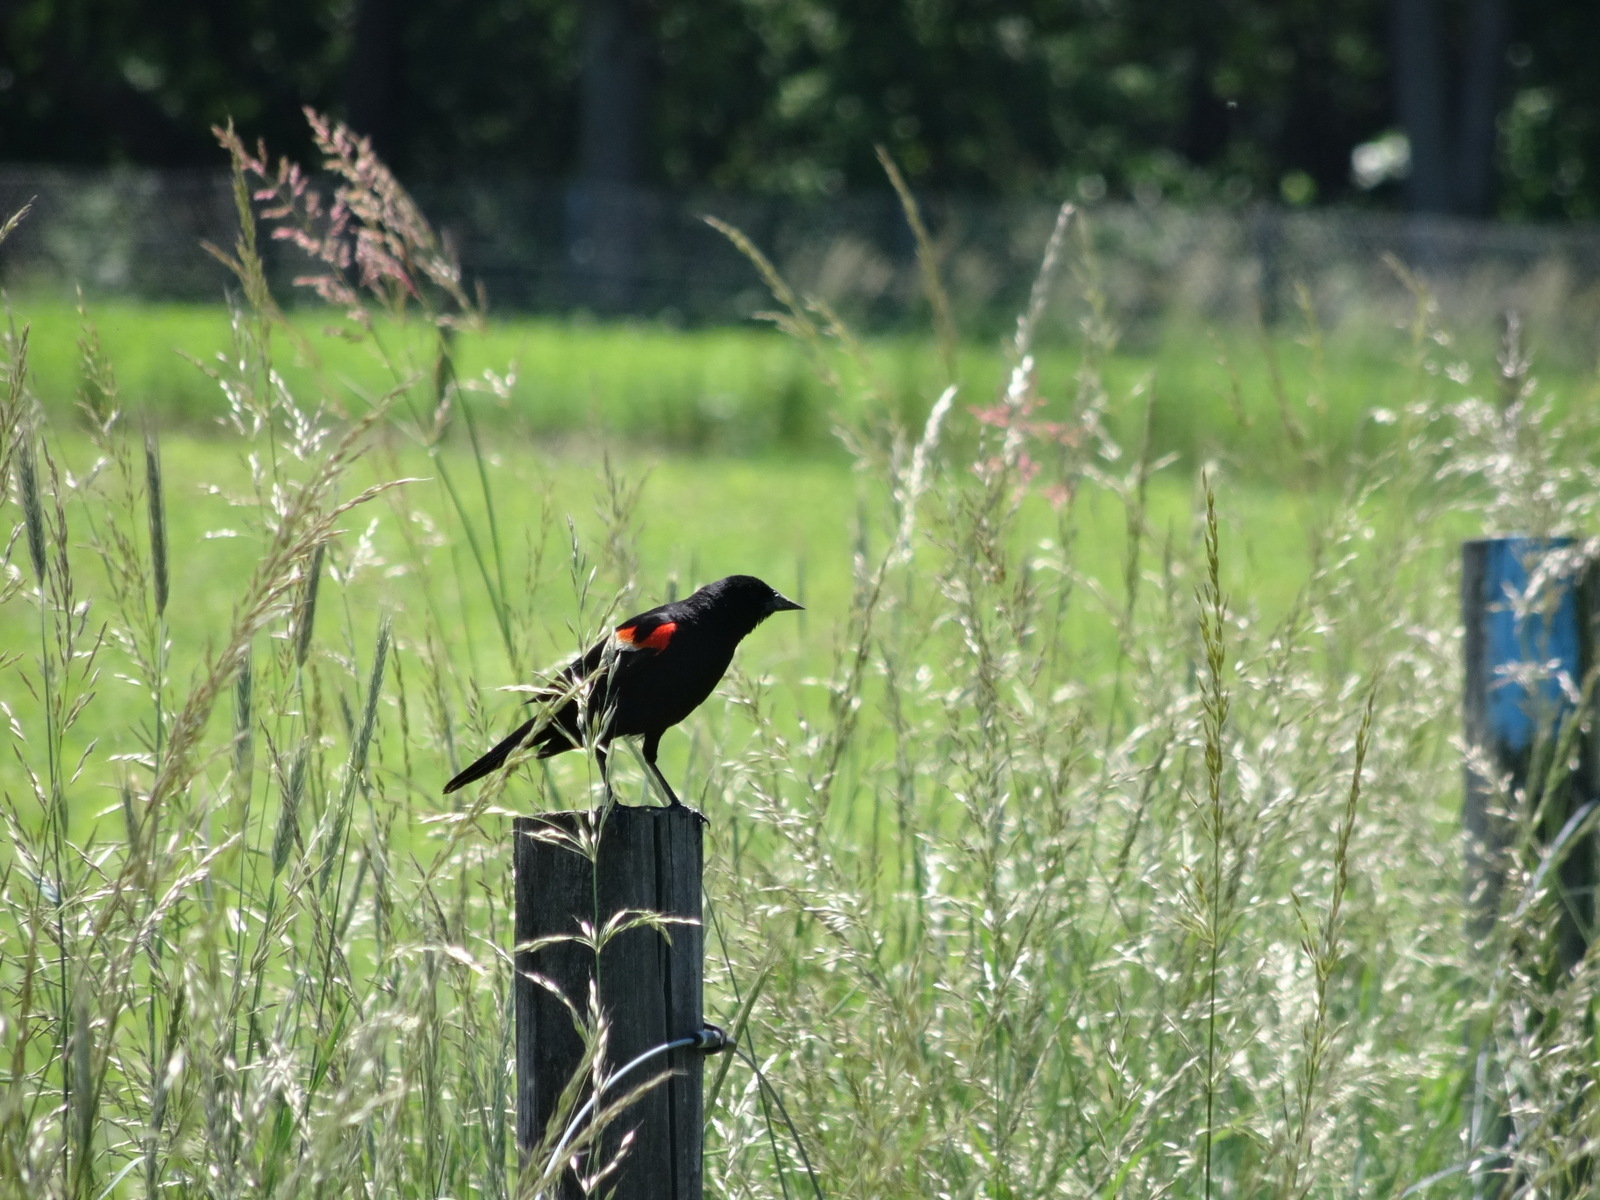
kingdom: Animalia
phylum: Chordata
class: Aves
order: Passeriformes
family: Icteridae
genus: Agelaius
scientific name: Agelaius phoeniceus
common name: Red-winged blackbird
